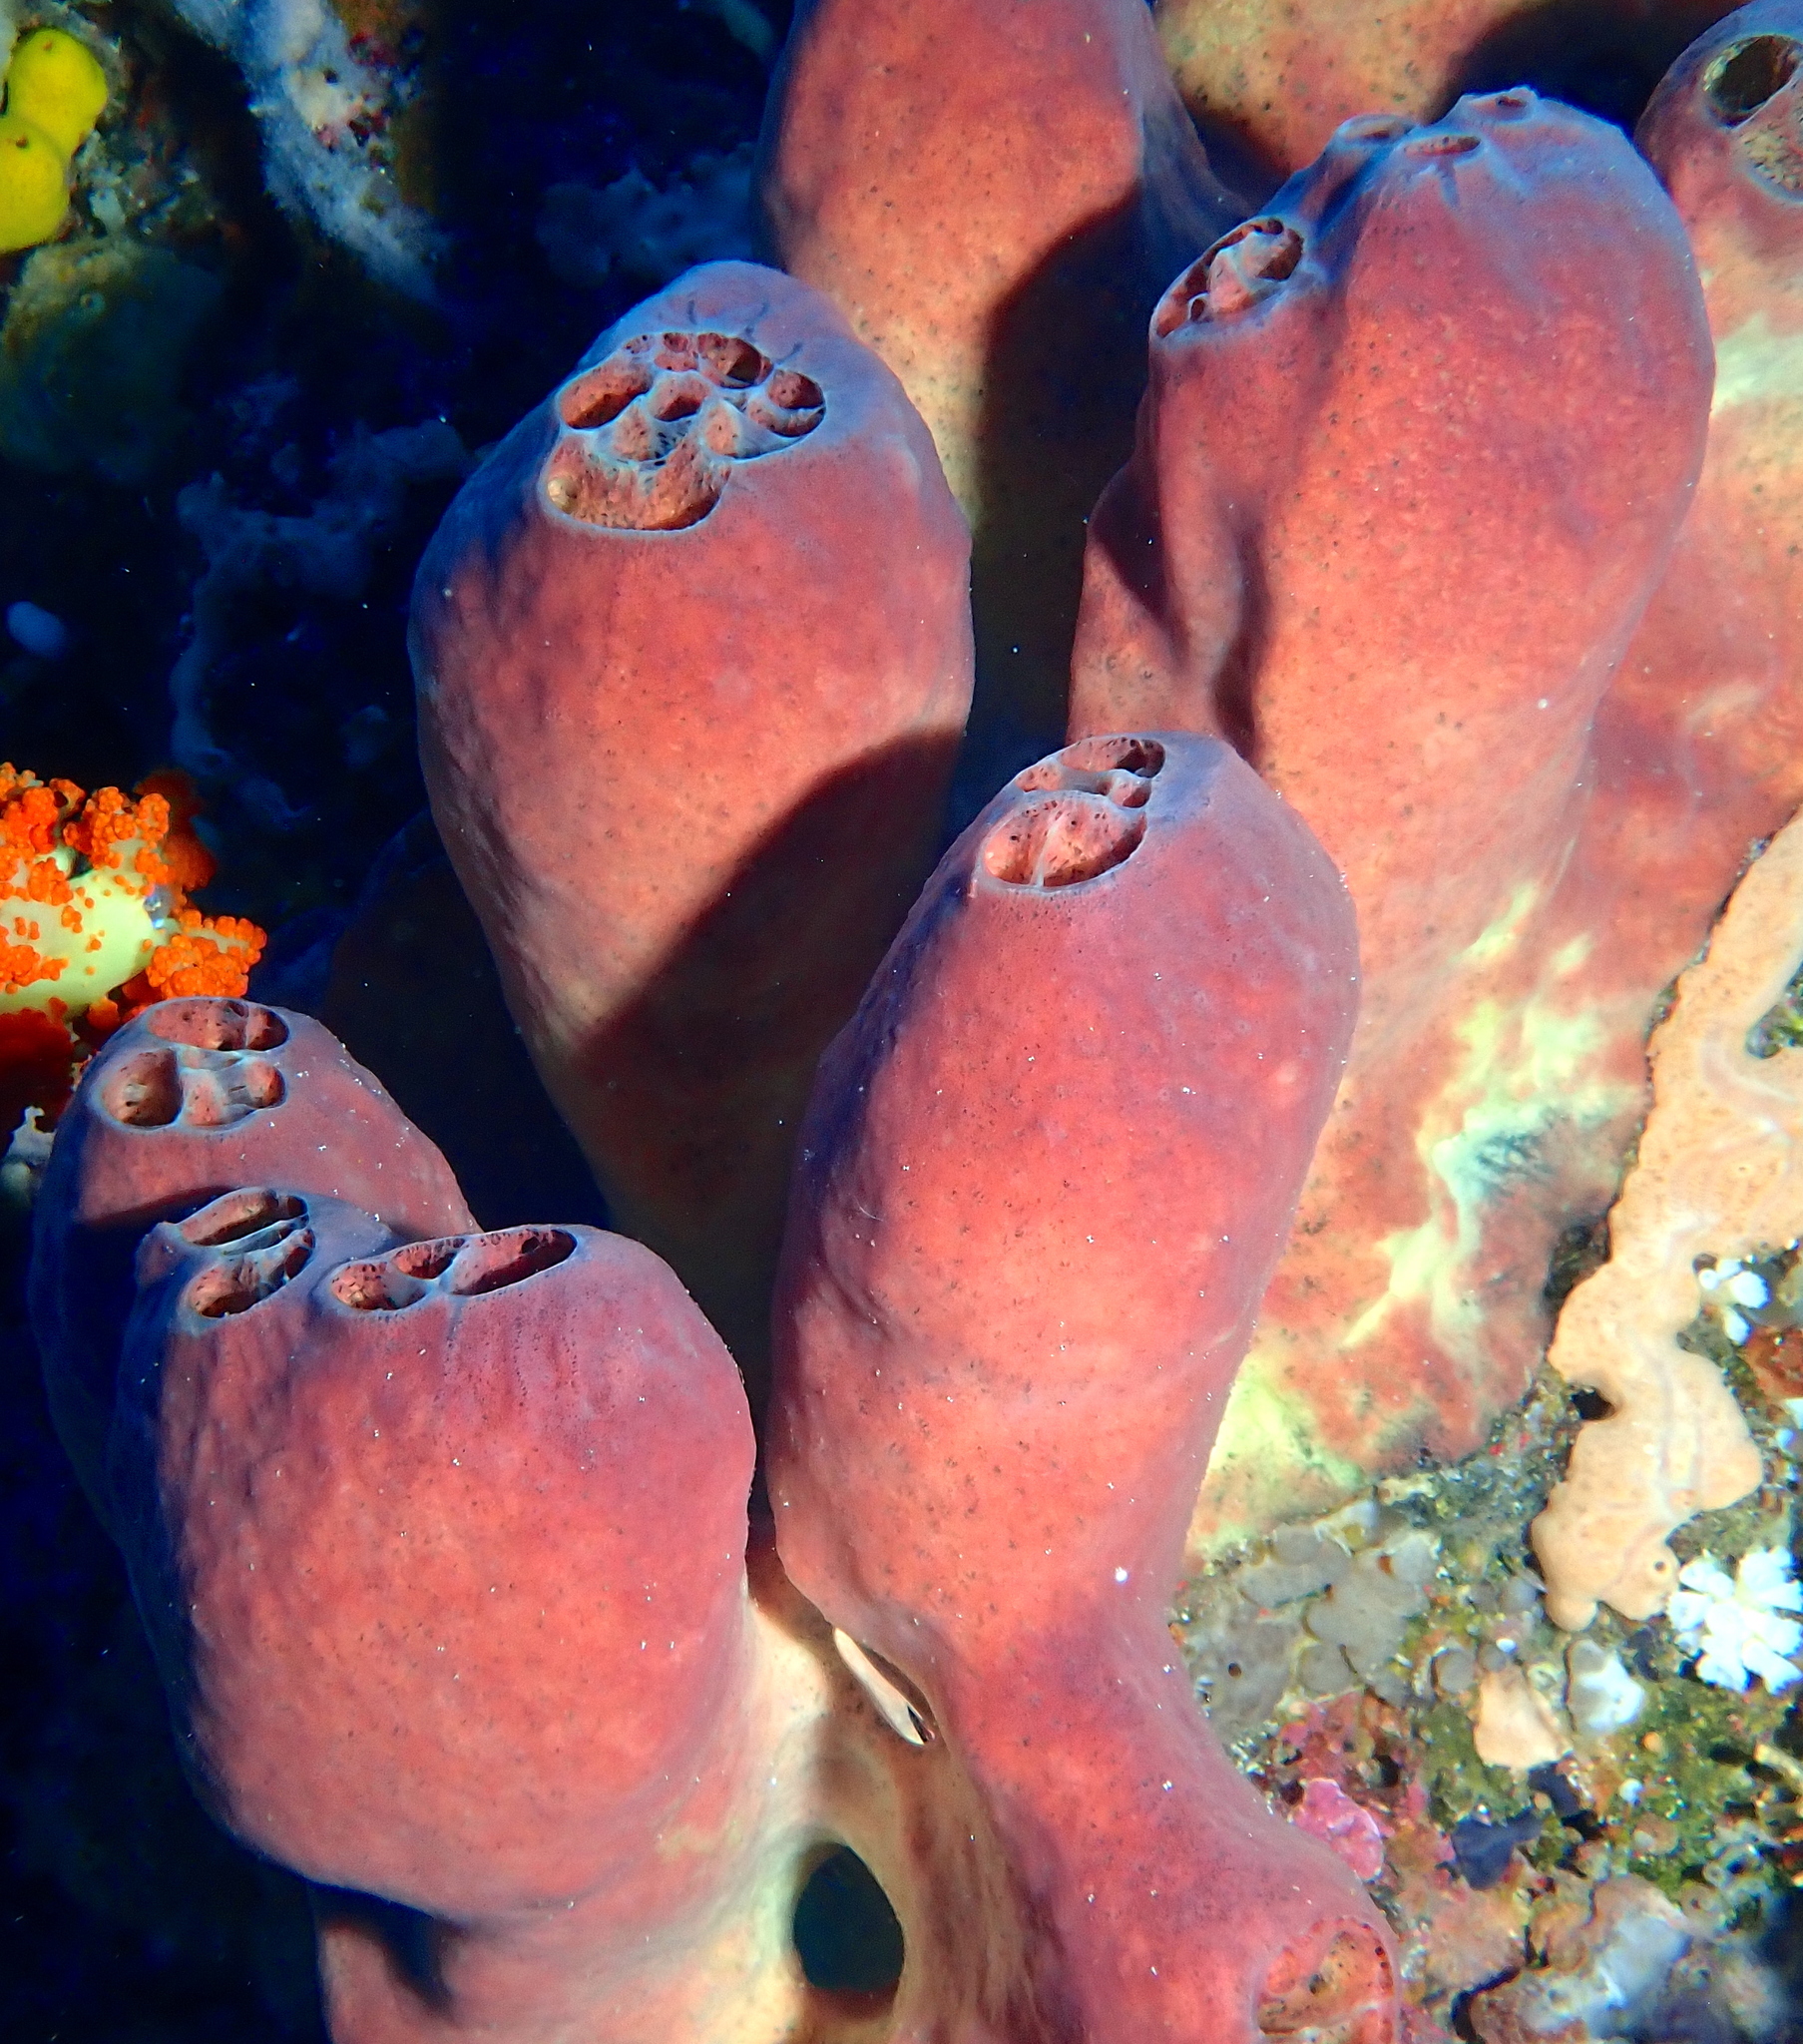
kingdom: Animalia
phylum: Porifera
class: Demospongiae
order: Haplosclerida
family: Petrosiidae
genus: Acanthostrongylophora
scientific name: Acanthostrongylophora ingens
